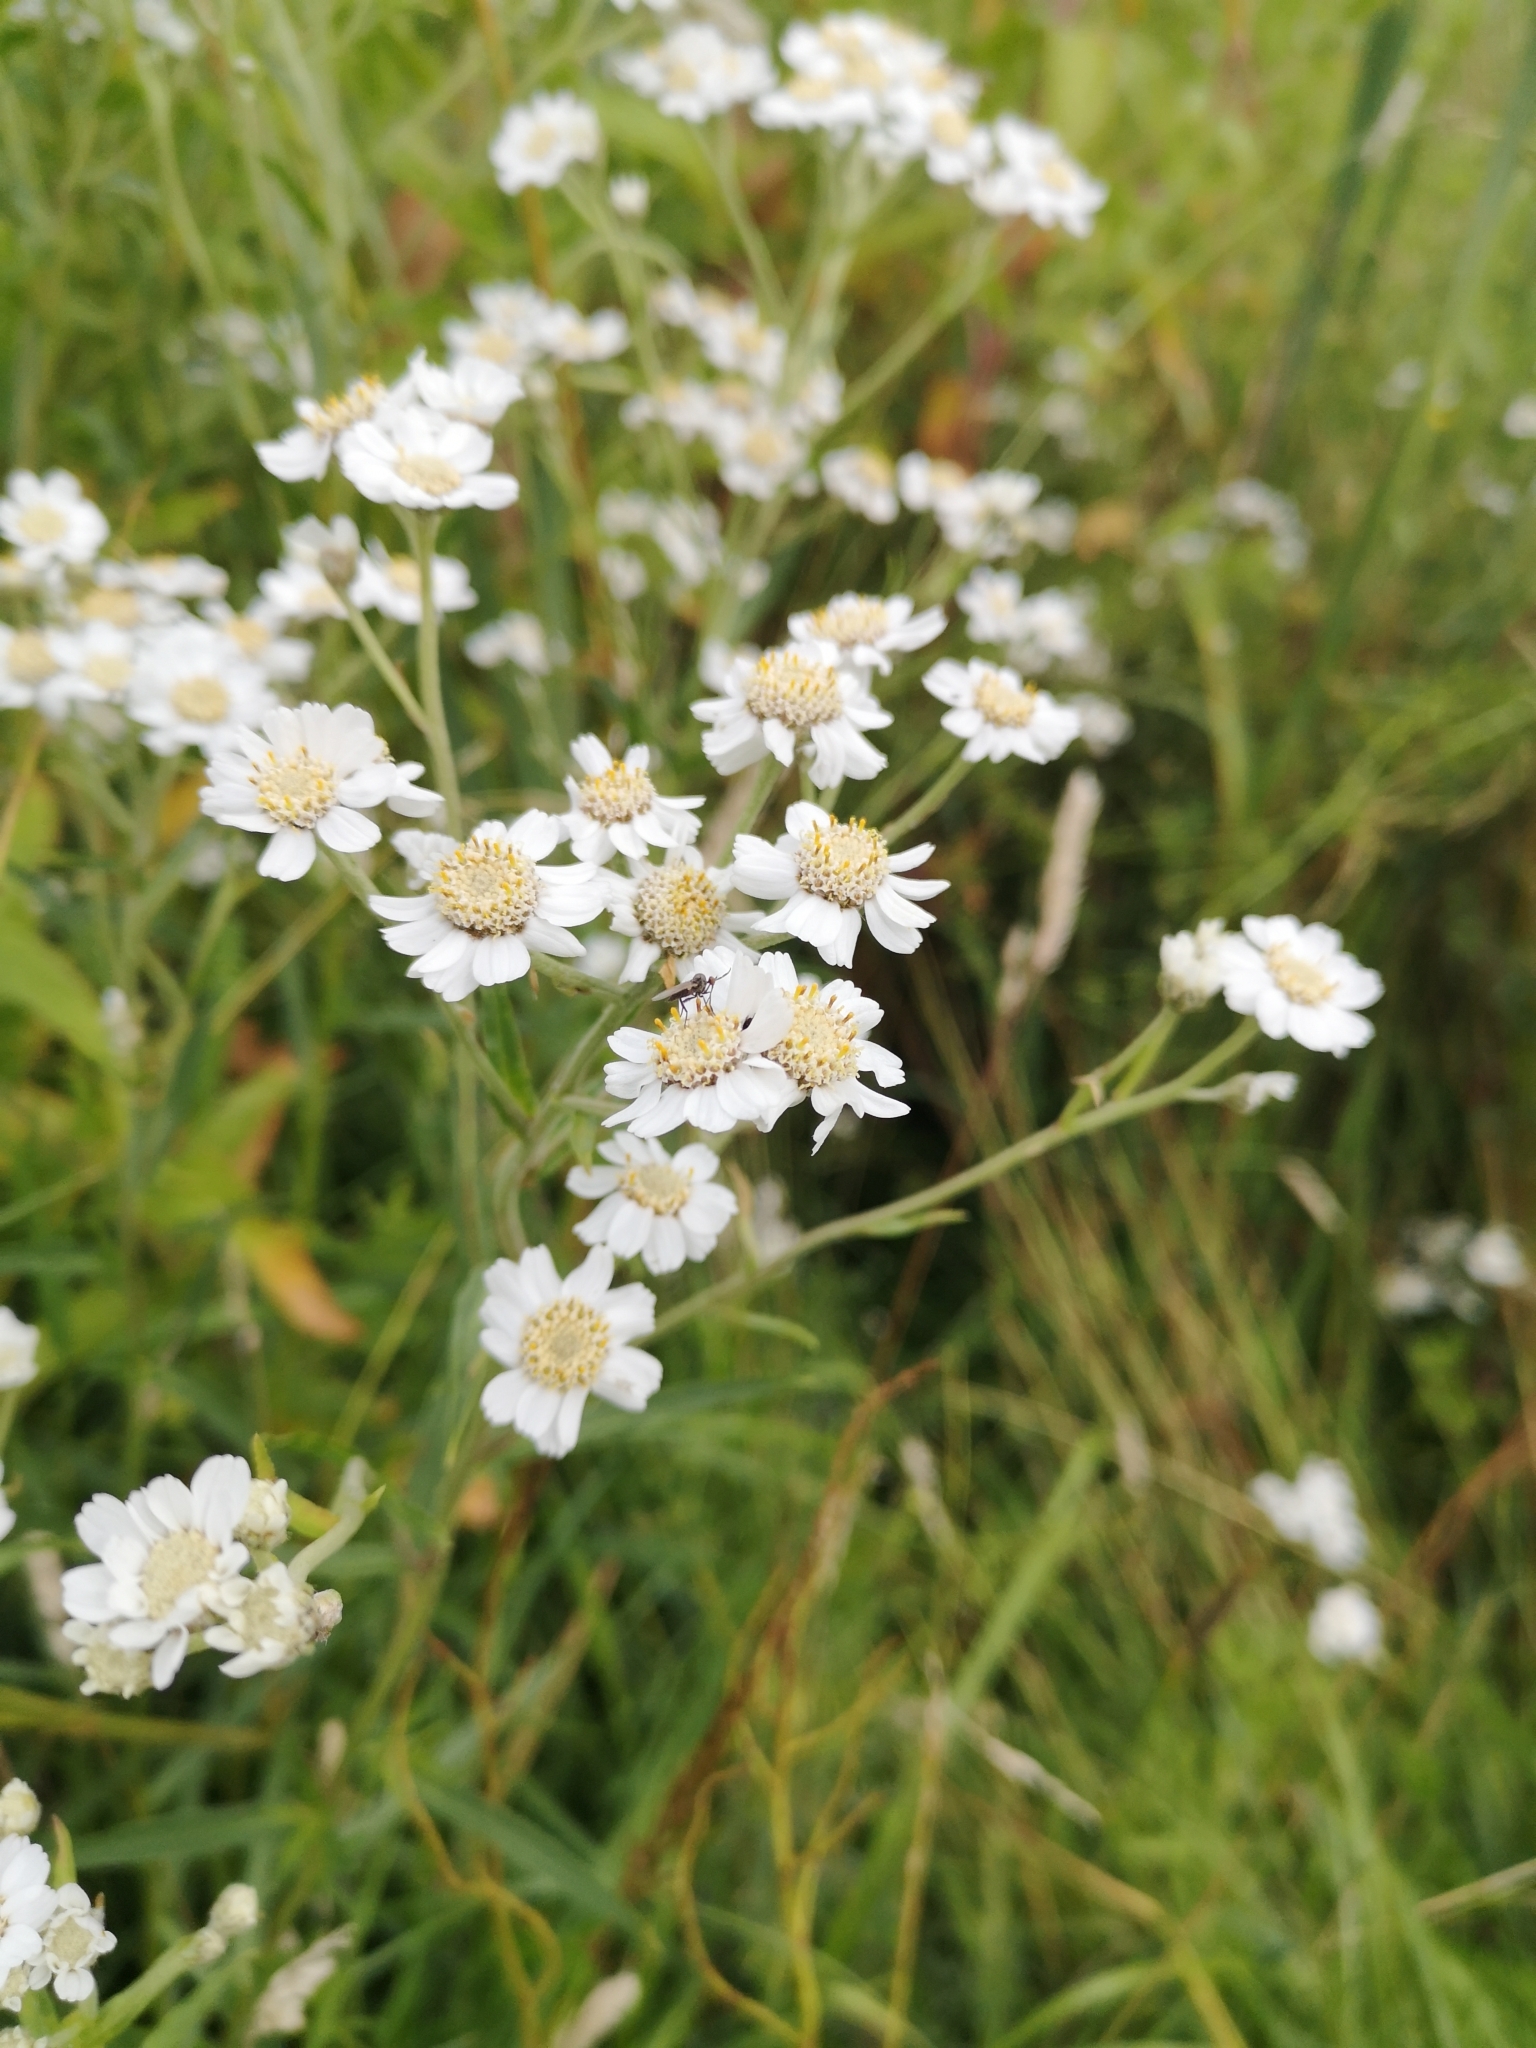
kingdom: Plantae
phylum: Tracheophyta
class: Magnoliopsida
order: Asterales
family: Asteraceae
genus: Achillea
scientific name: Achillea ptarmica
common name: Sneezeweed
